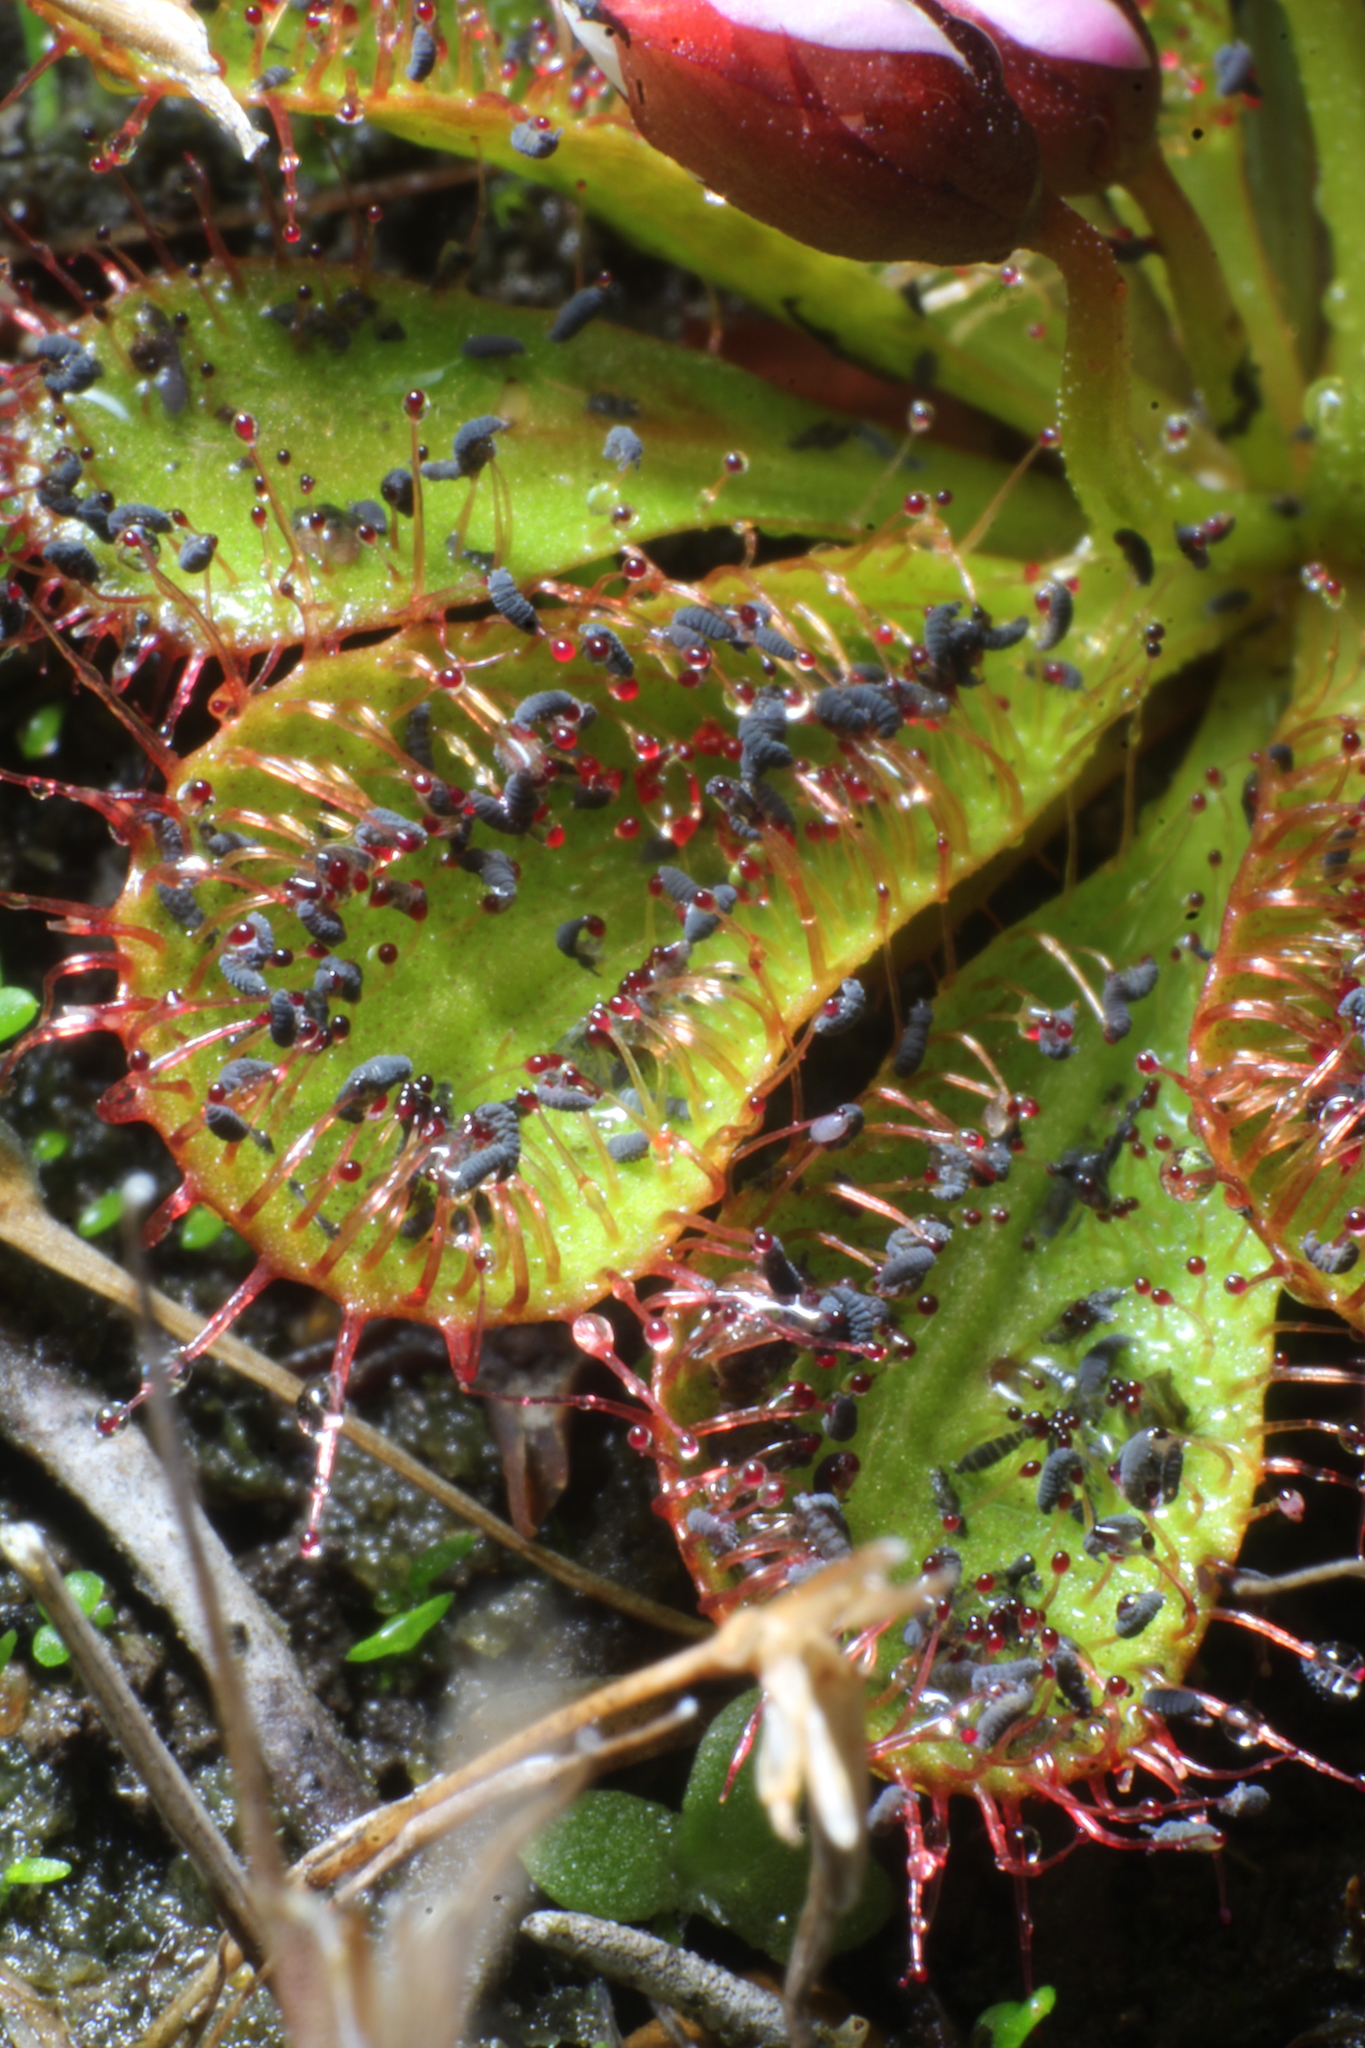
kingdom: Plantae
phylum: Tracheophyta
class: Magnoliopsida
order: Caryophyllales
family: Droseraceae
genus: Drosera
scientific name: Drosera tubaestylis
